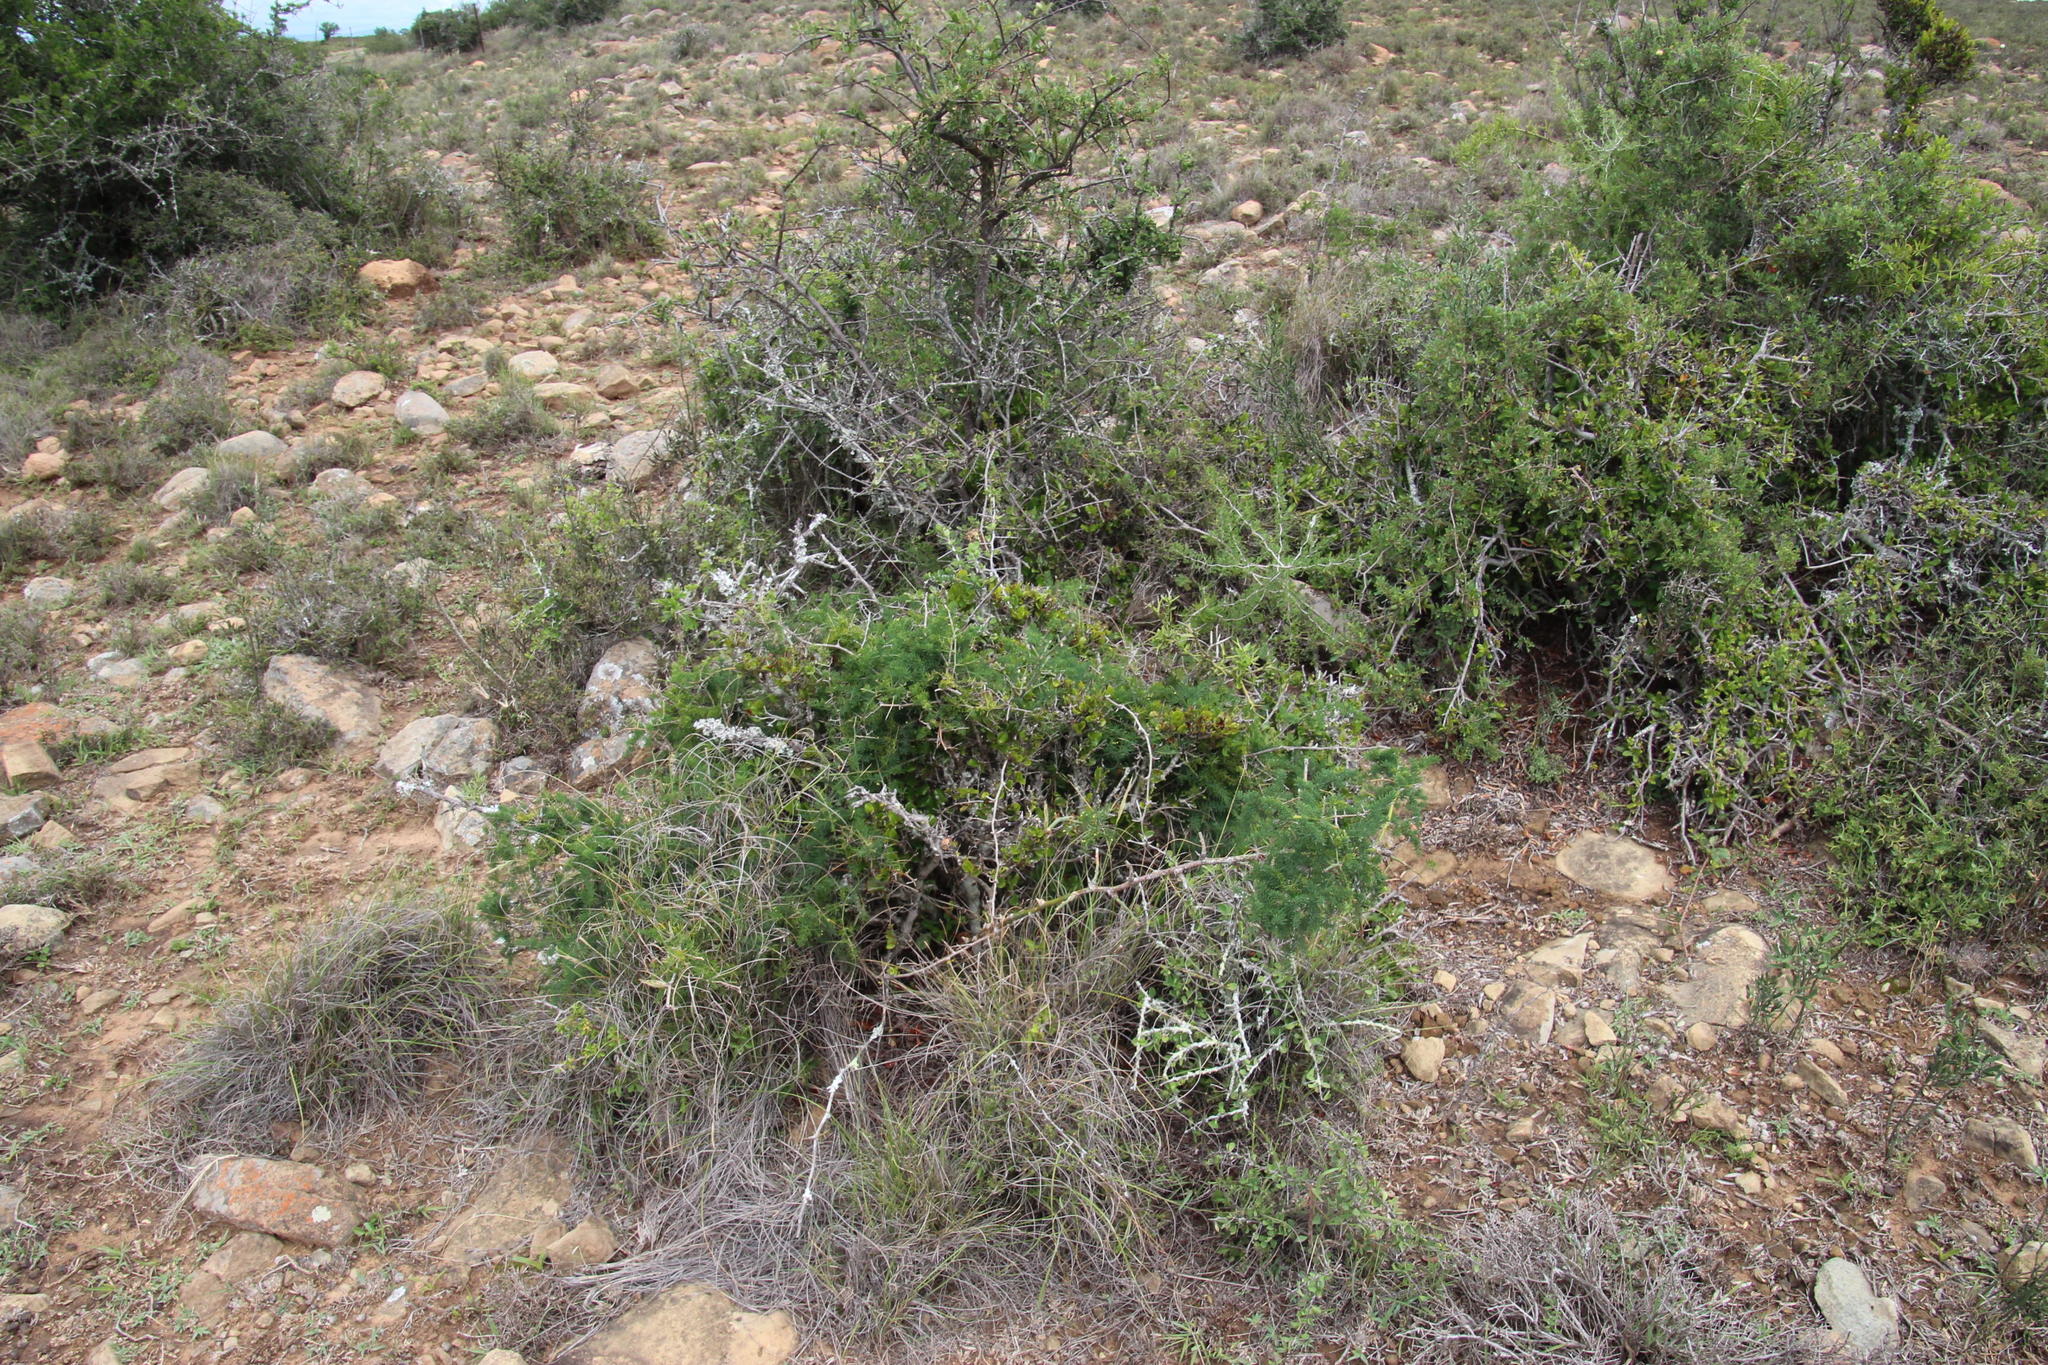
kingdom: Plantae
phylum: Tracheophyta
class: Liliopsida
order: Asparagales
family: Asparagaceae
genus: Asparagus
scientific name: Asparagus africanus
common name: Asparagus-fern
